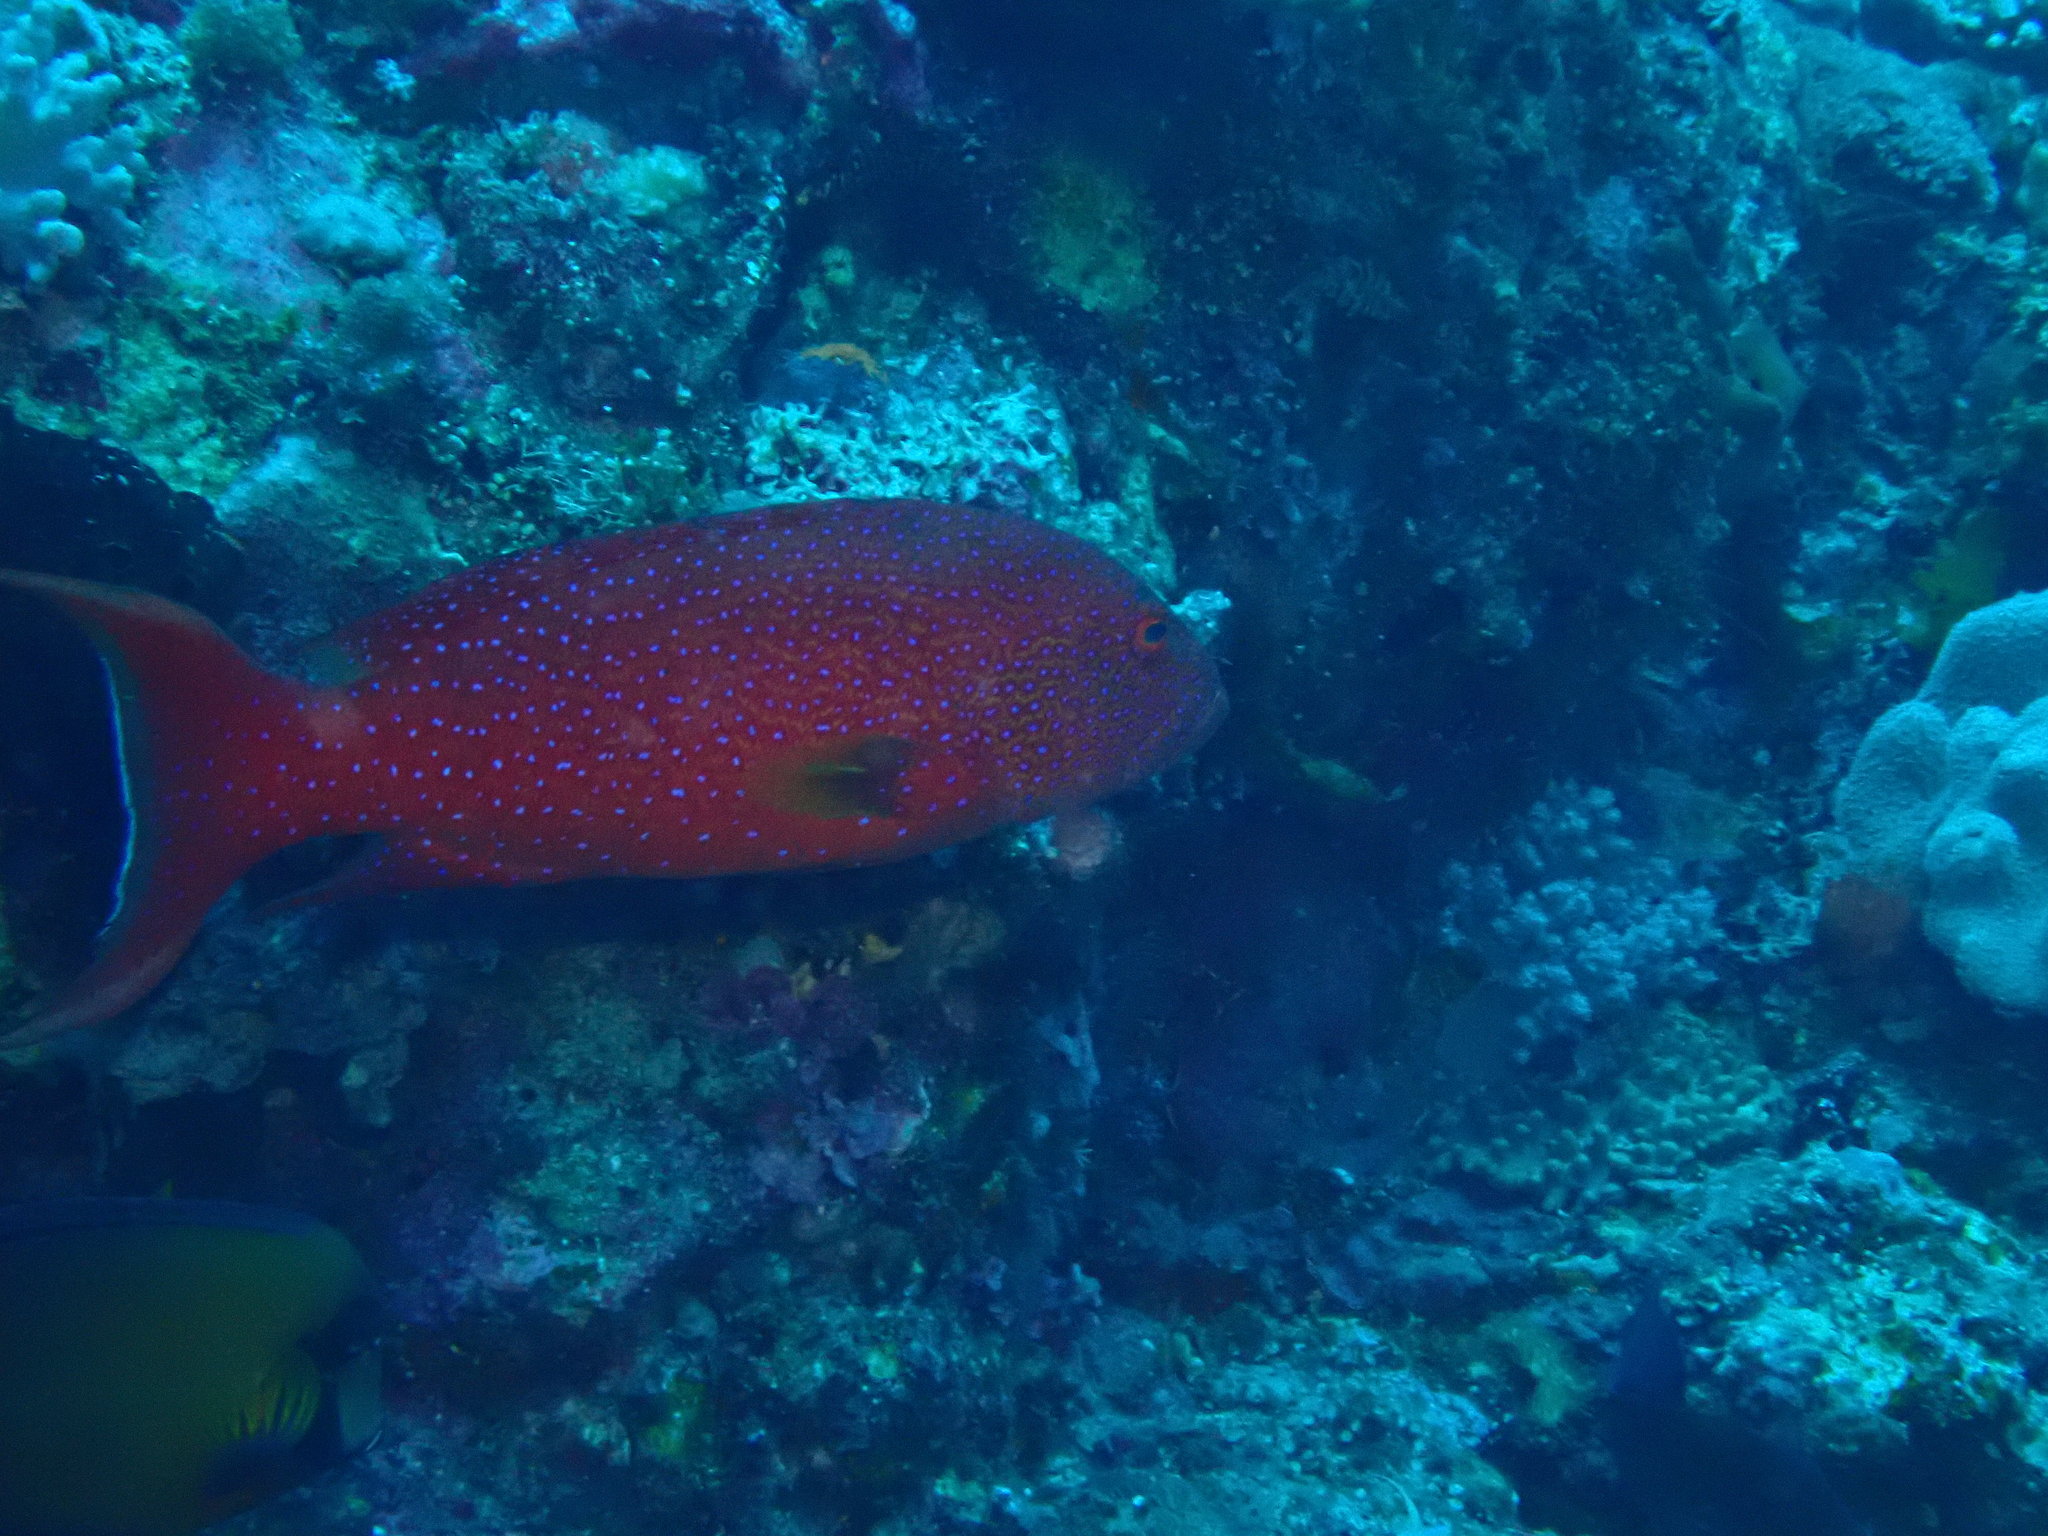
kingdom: Animalia
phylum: Chordata
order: Perciformes
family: Serranidae
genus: Variola
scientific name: Variola albimarginata
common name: Lunar-tailed grouper
